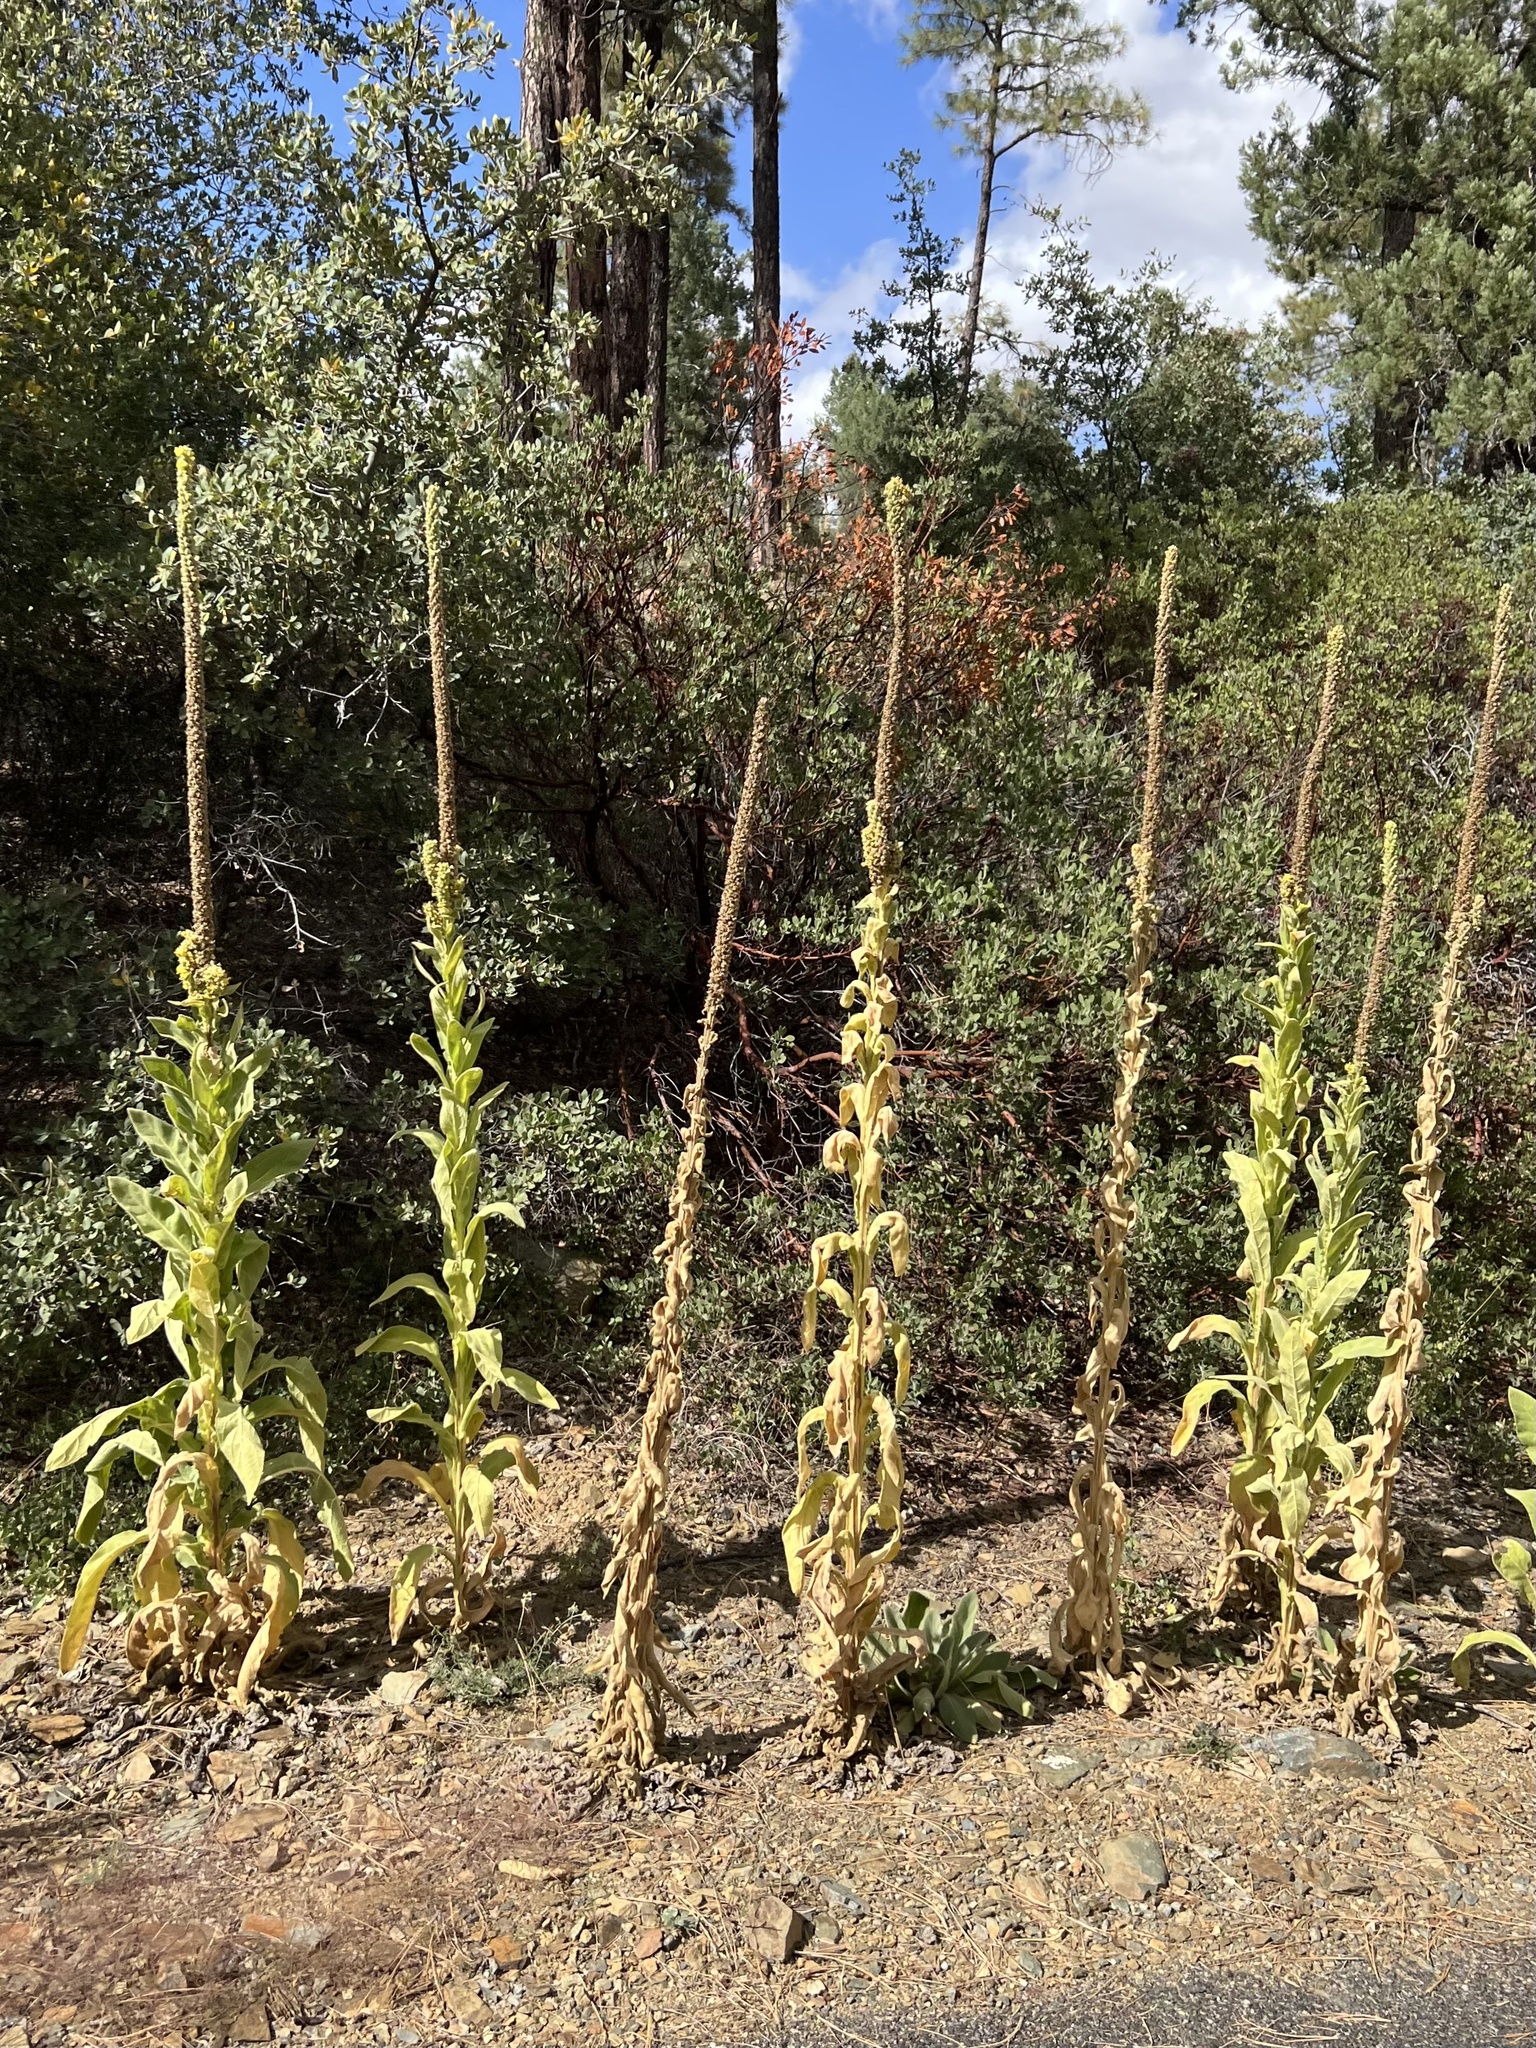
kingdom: Plantae
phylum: Tracheophyta
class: Magnoliopsida
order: Lamiales
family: Scrophulariaceae
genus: Verbascum
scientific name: Verbascum thapsus
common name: Common mullein
